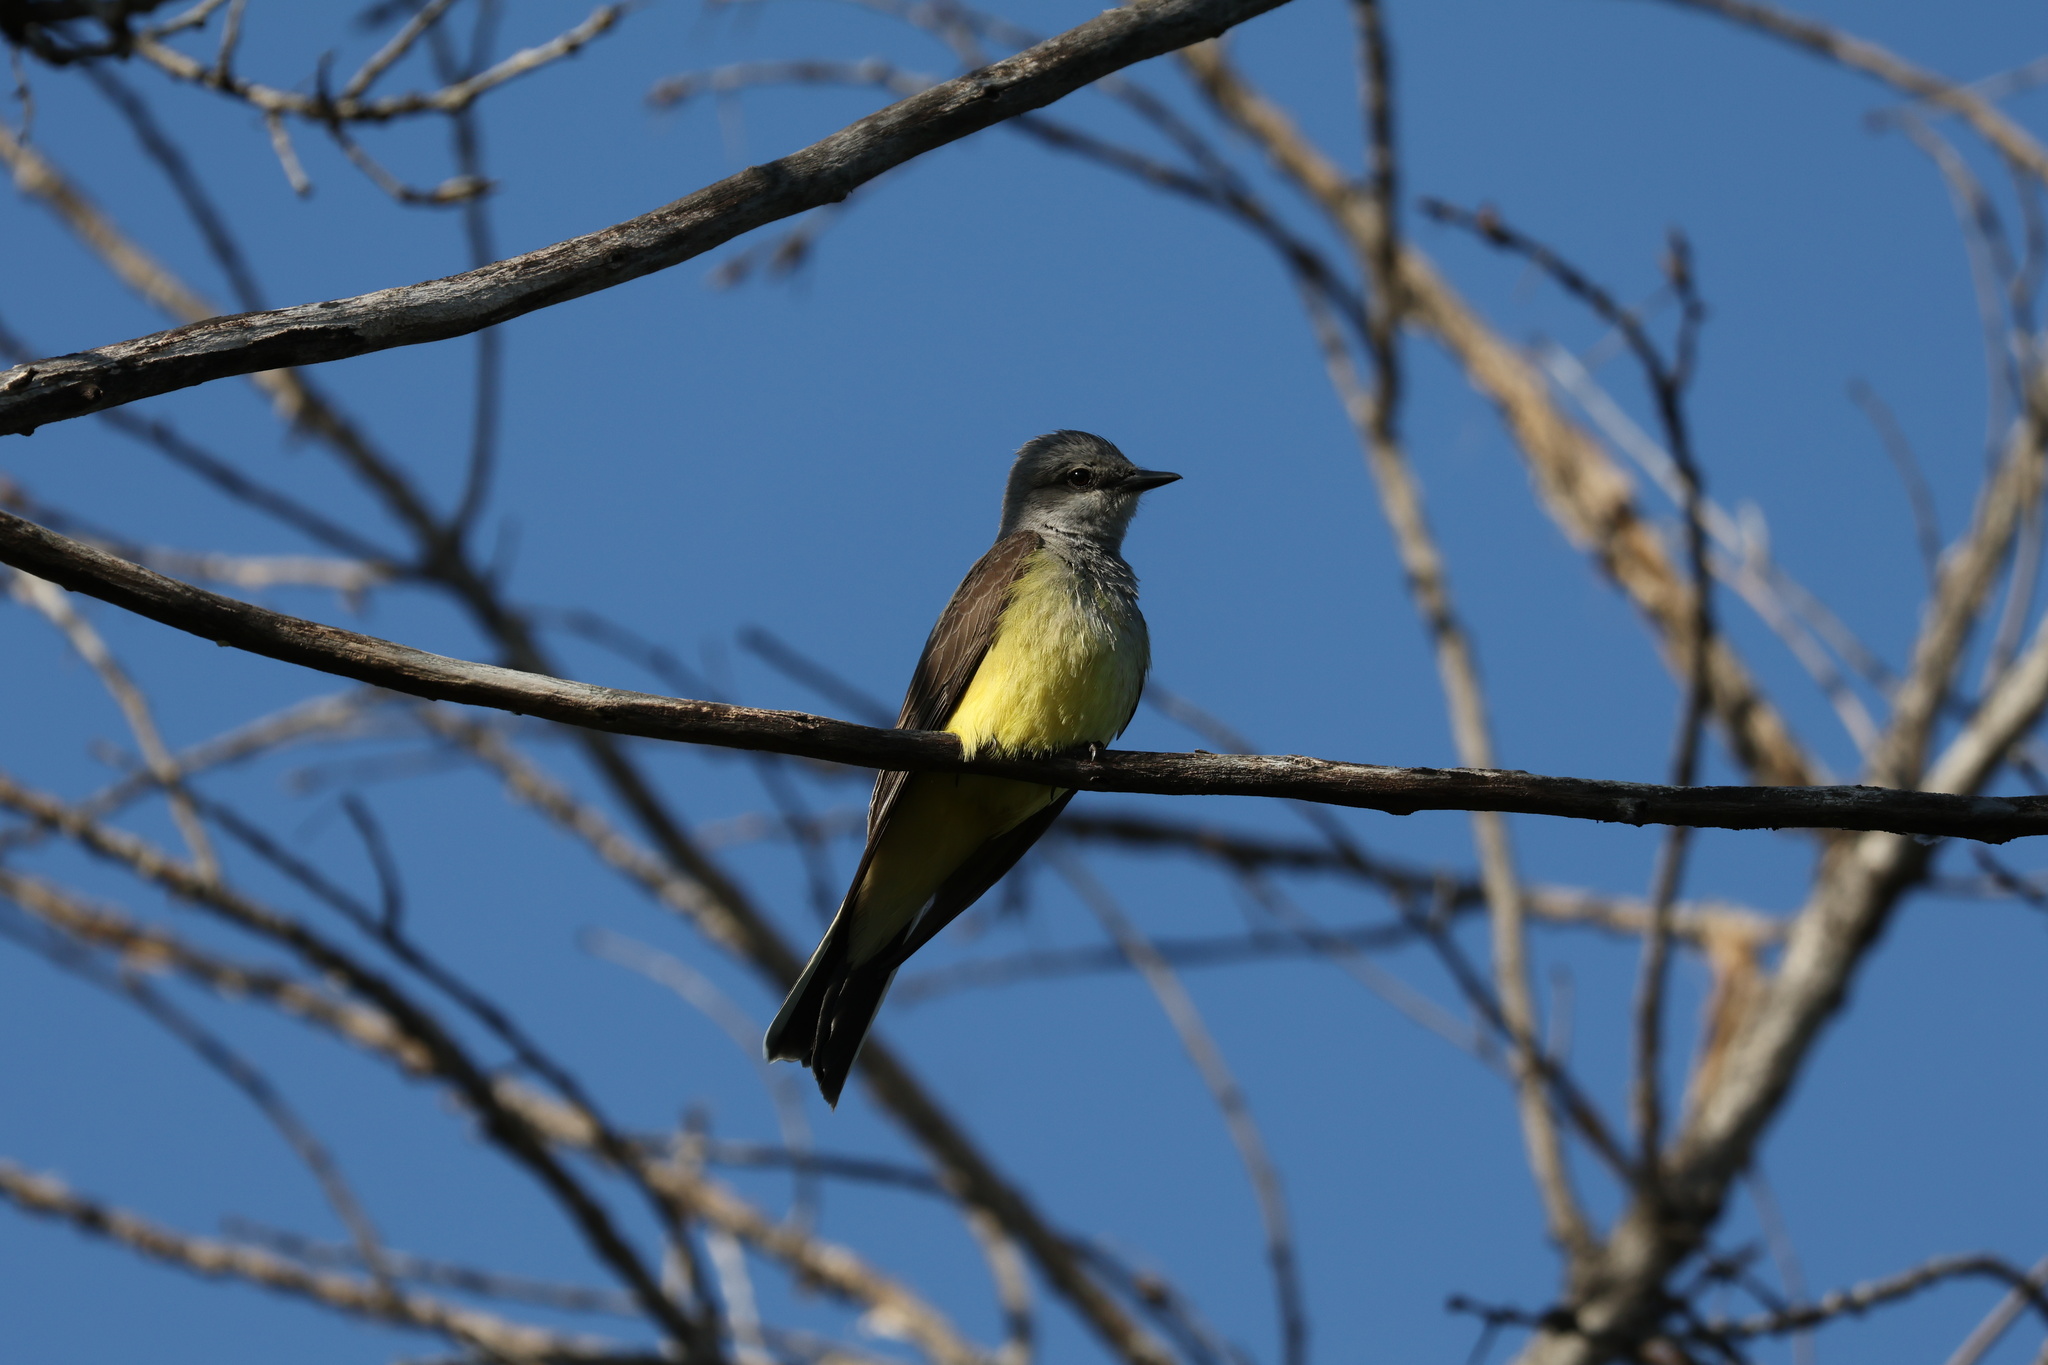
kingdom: Animalia
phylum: Chordata
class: Aves
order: Passeriformes
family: Tyrannidae
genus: Tyrannus
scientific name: Tyrannus verticalis
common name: Western kingbird
